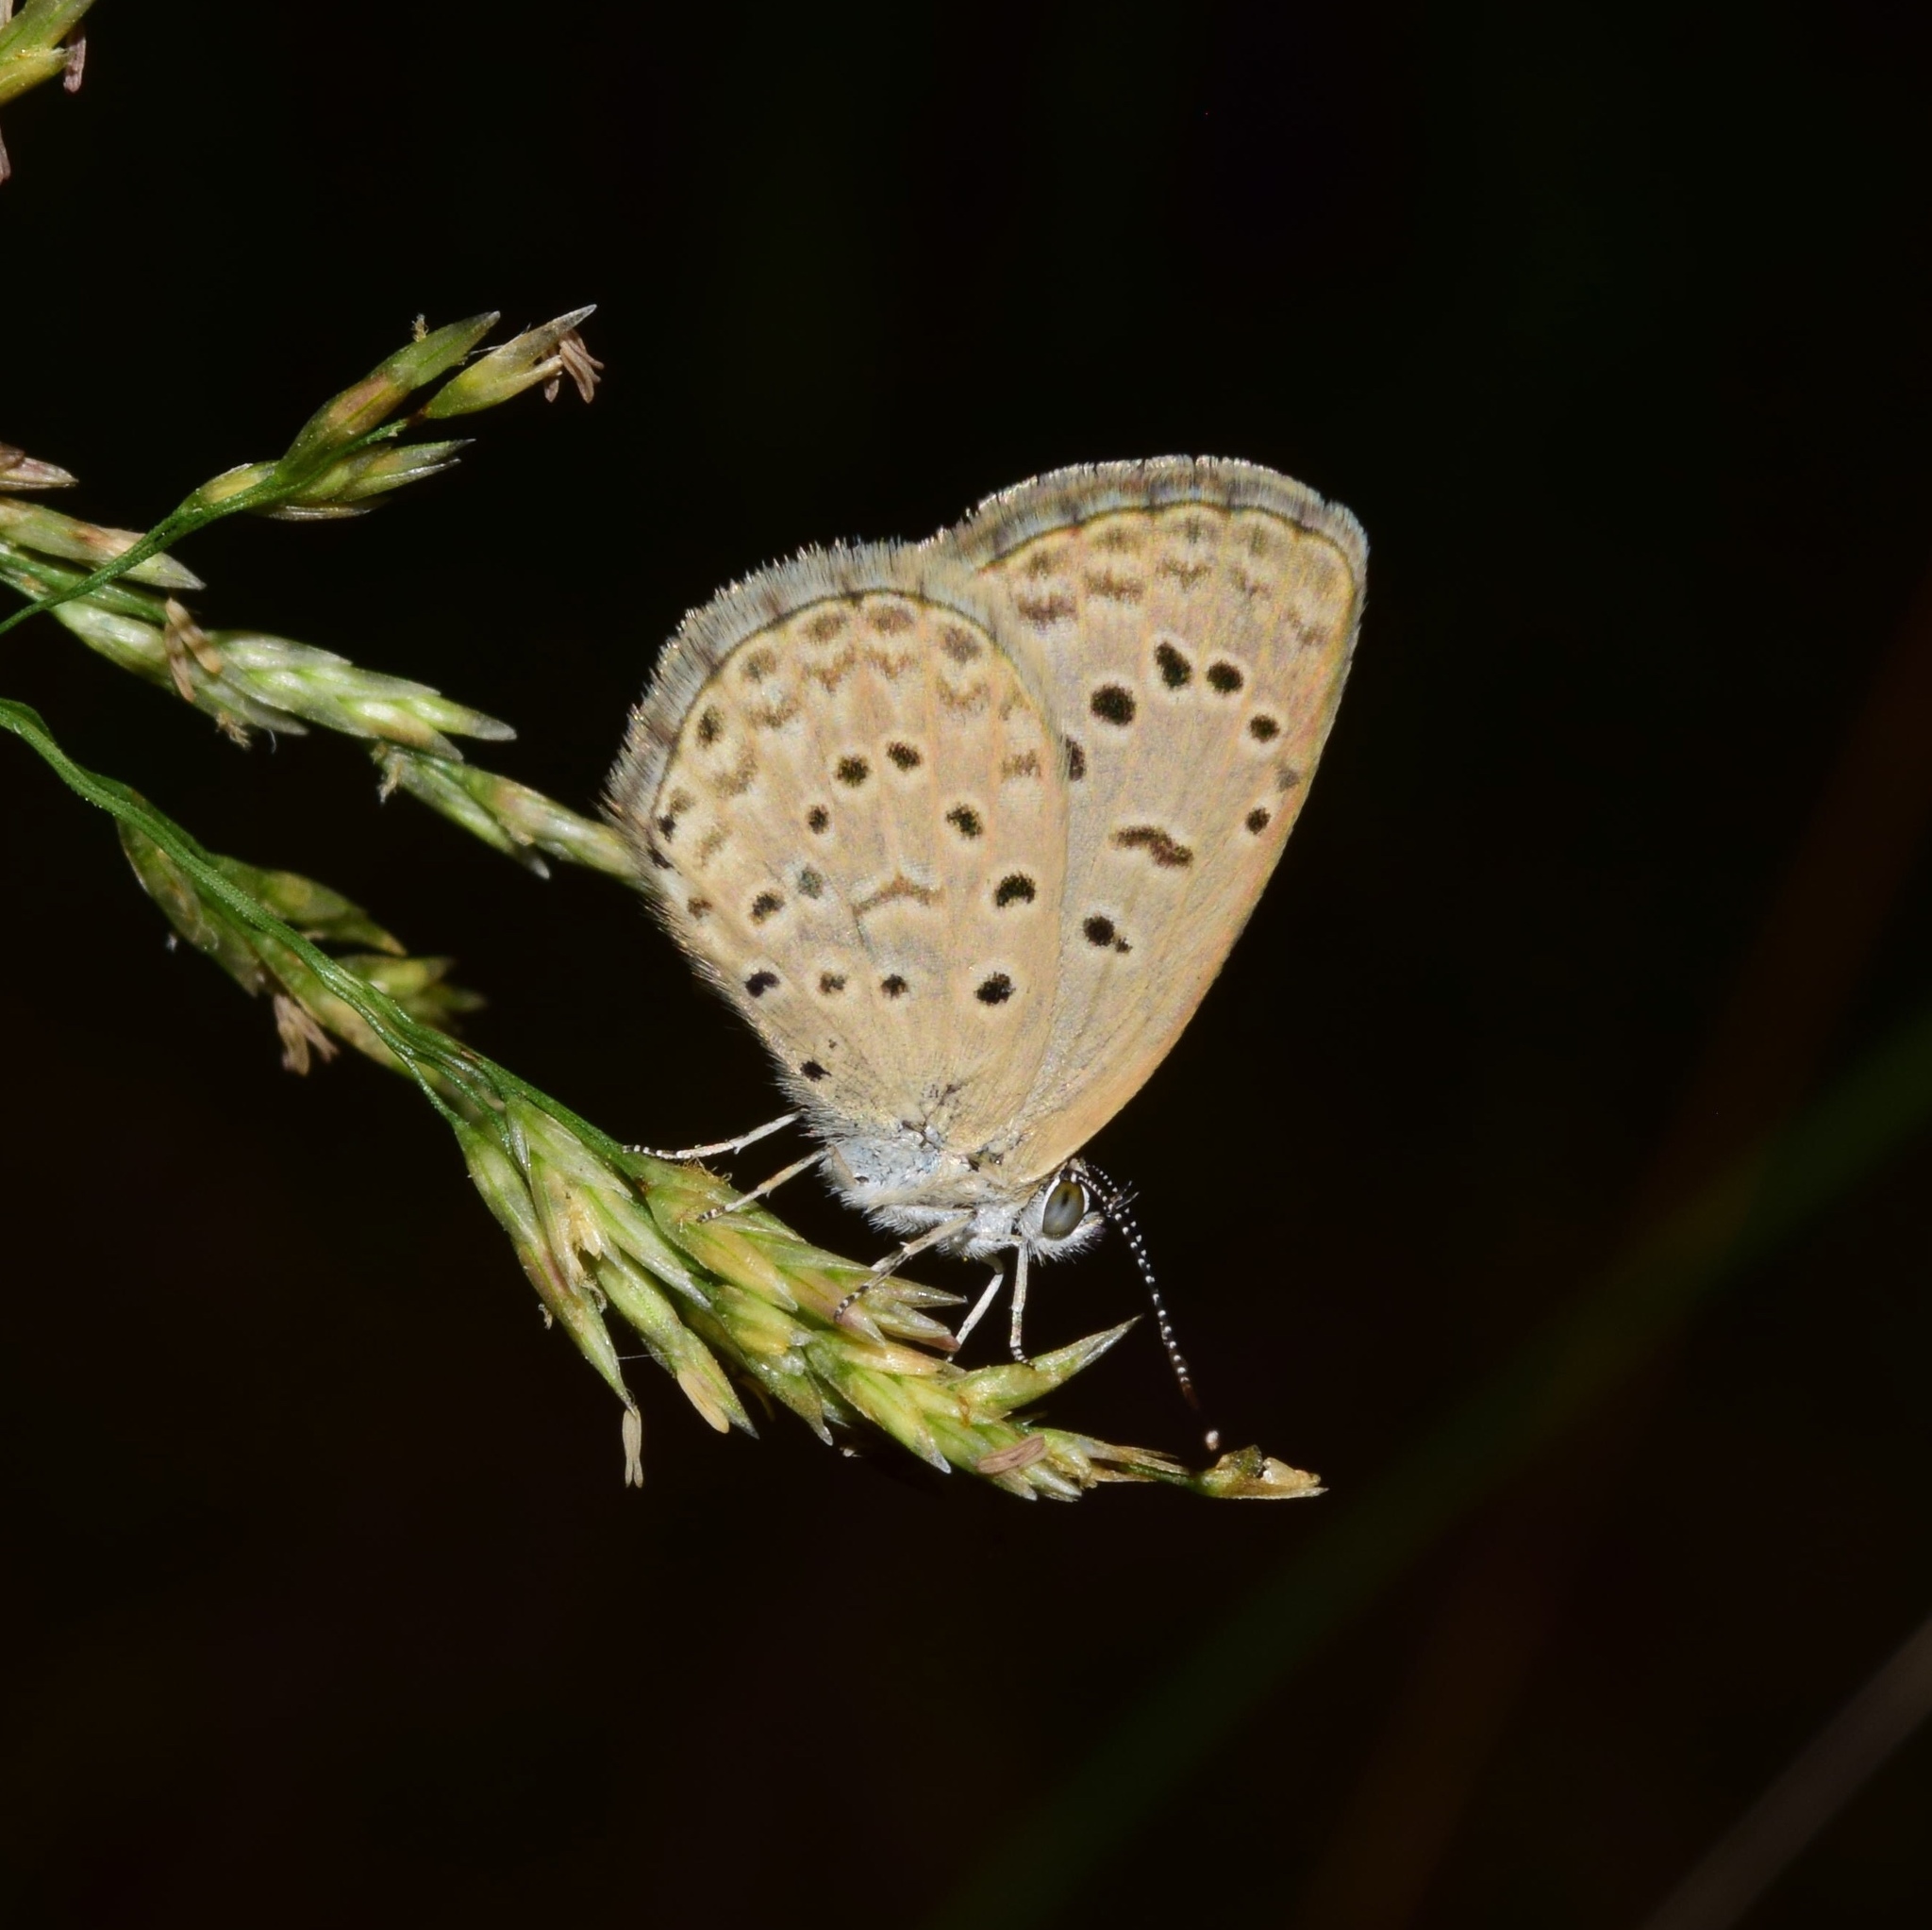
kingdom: Animalia
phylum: Arthropoda
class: Insecta
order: Lepidoptera
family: Lycaenidae
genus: Zizeeria
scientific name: Zizeeria knysna
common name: African grass blue
